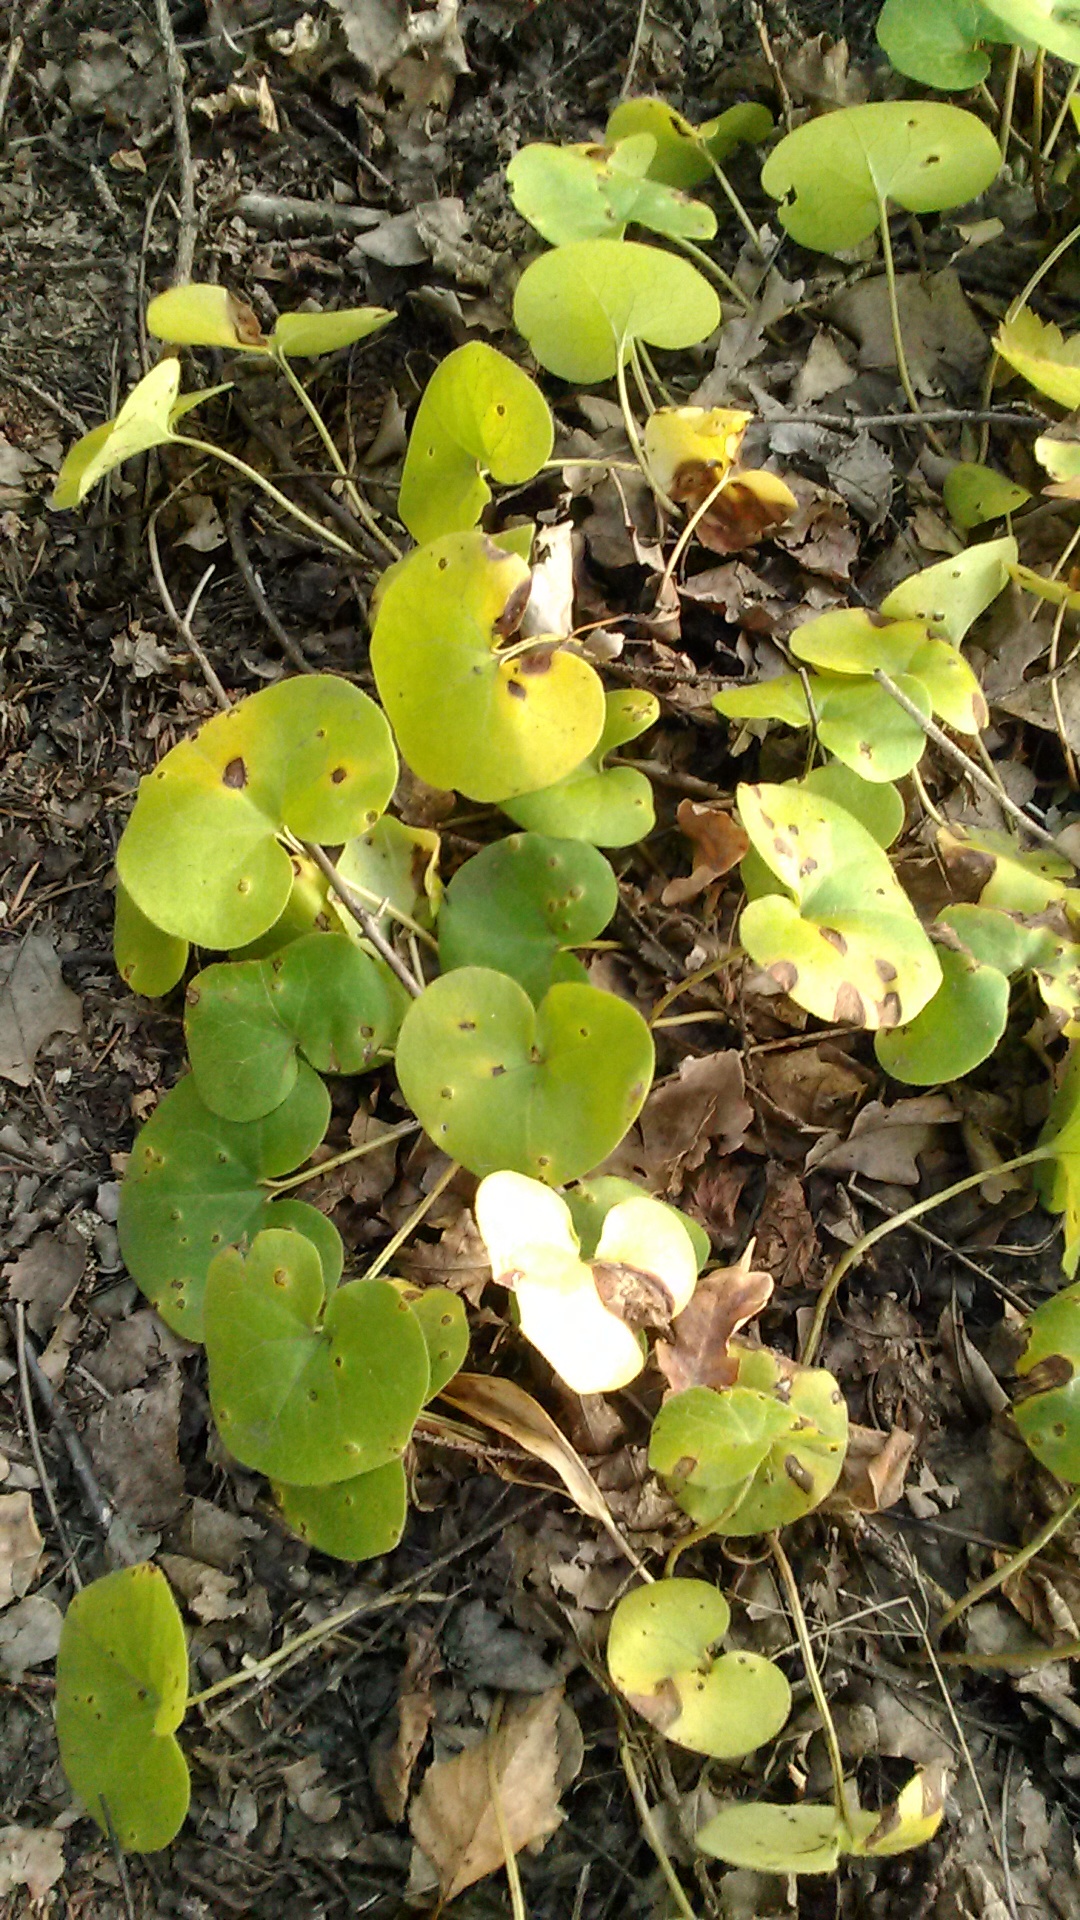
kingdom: Plantae
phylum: Tracheophyta
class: Magnoliopsida
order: Piperales
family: Aristolochiaceae
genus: Asarum
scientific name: Asarum europaeum
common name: Asarabacca
